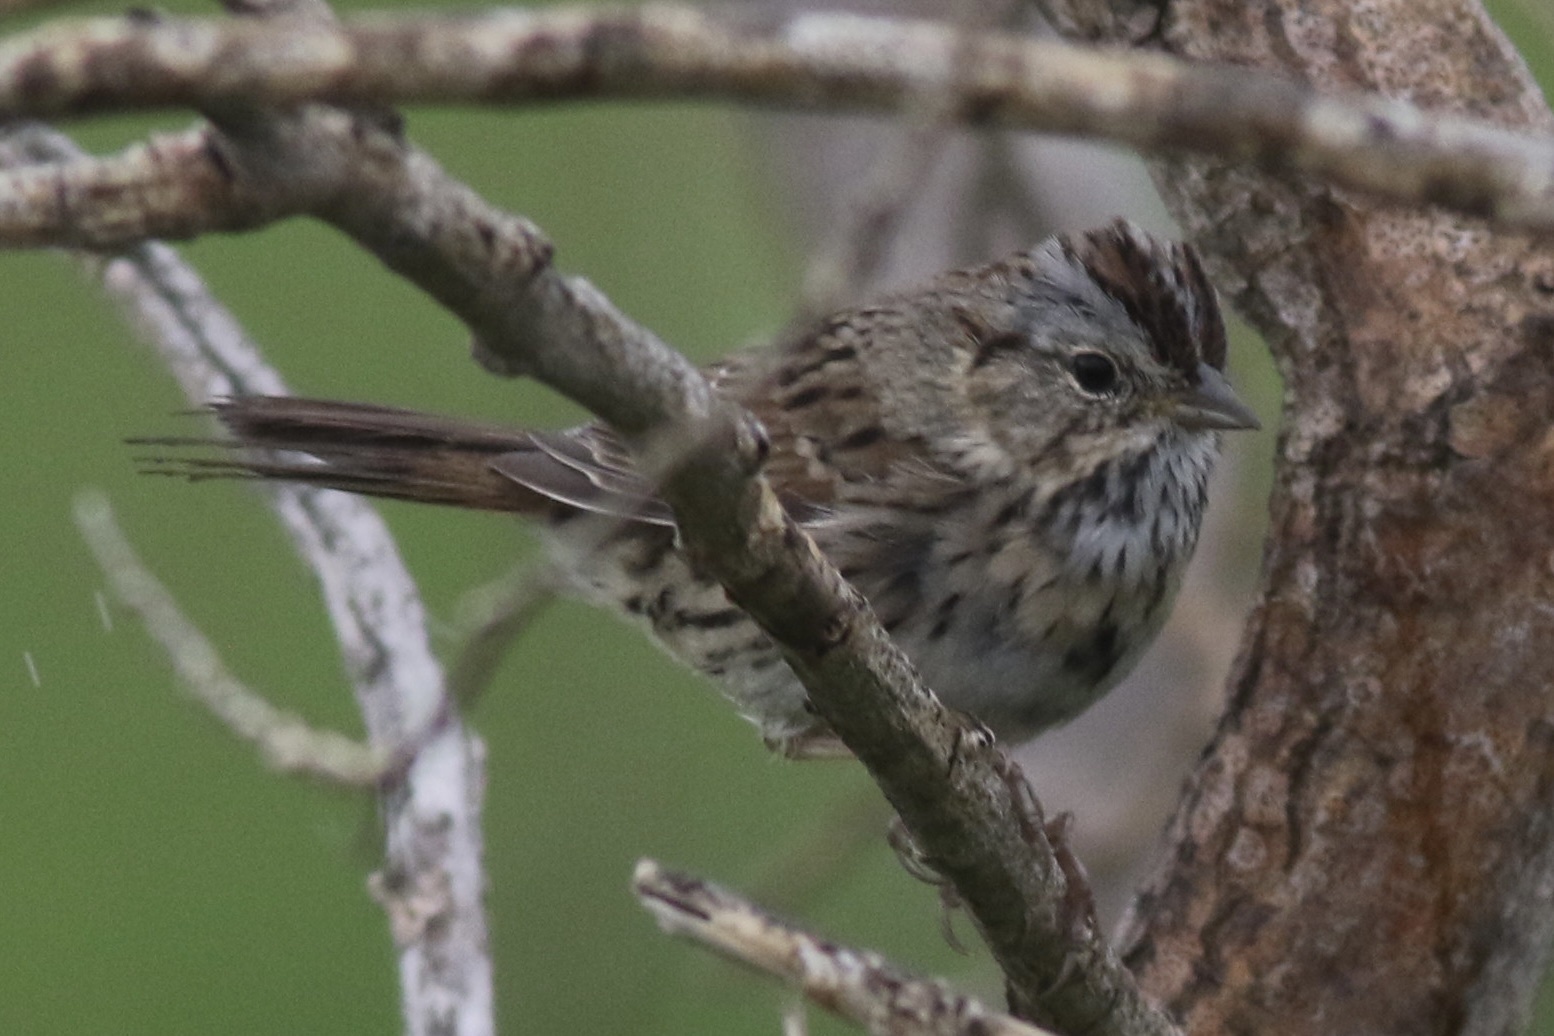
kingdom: Animalia
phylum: Chordata
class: Aves
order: Passeriformes
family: Passerellidae
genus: Melospiza
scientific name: Melospiza lincolnii
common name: Lincoln's sparrow
